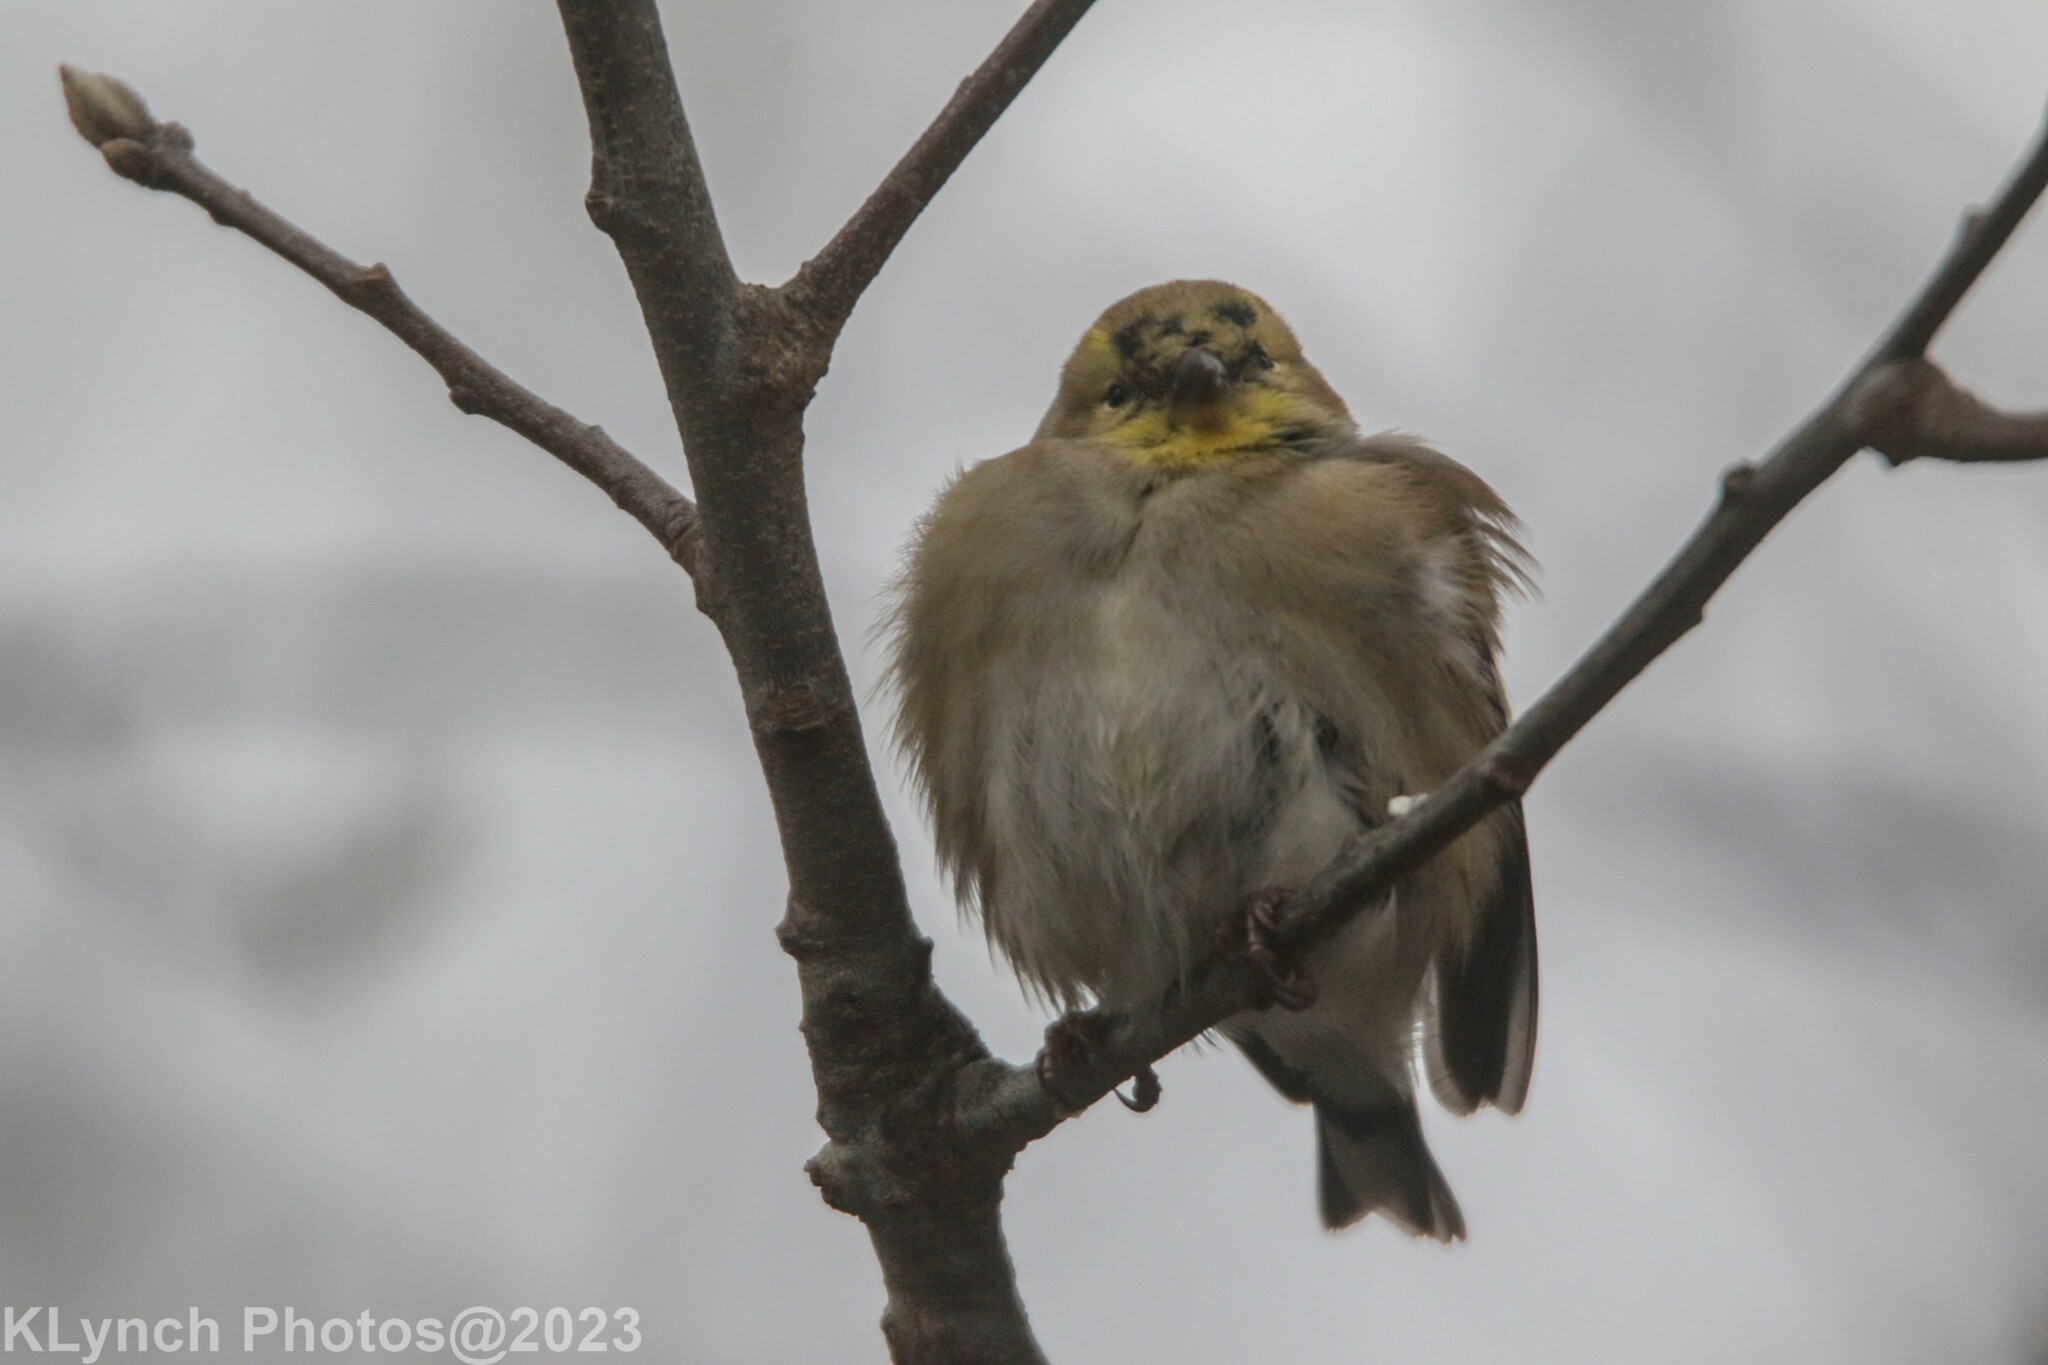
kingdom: Animalia
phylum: Chordata
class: Aves
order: Passeriformes
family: Fringillidae
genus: Spinus
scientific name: Spinus tristis
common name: American goldfinch
